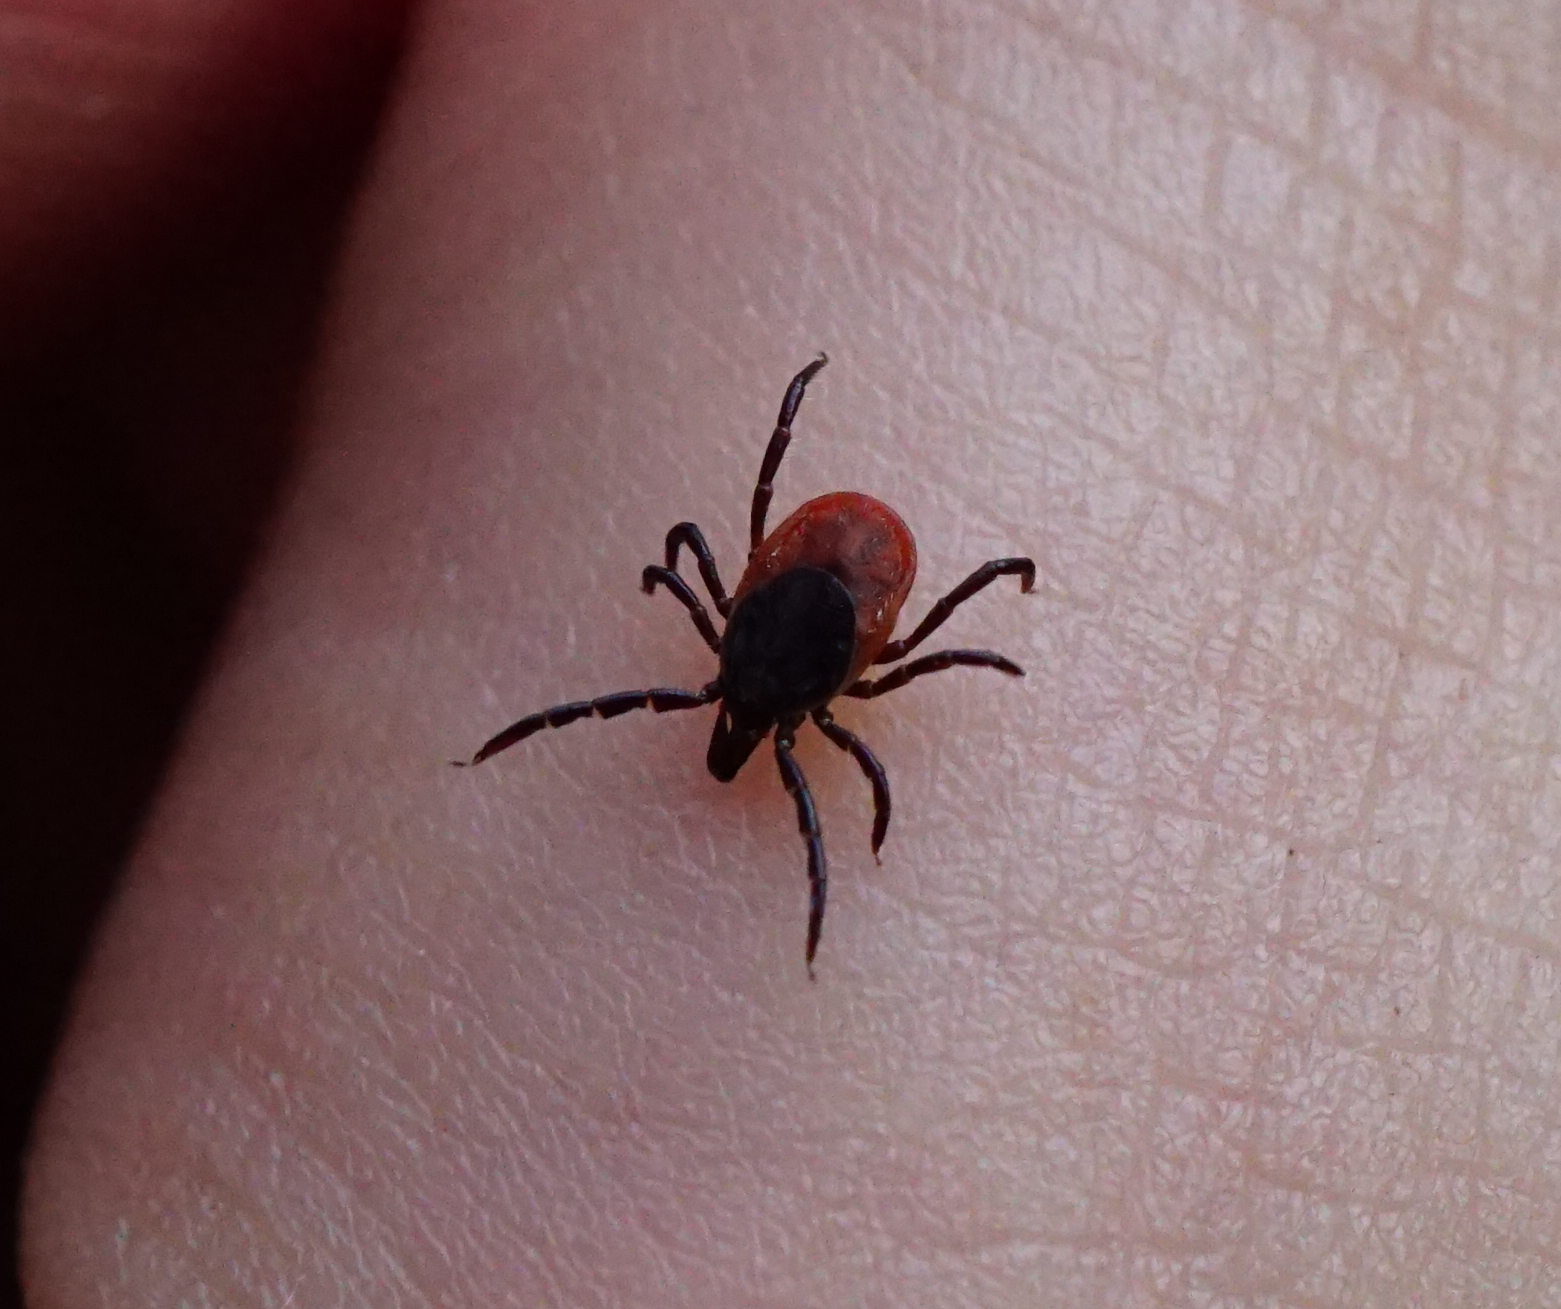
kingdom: Animalia
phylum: Arthropoda
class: Arachnida
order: Ixodida
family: Ixodidae
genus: Ixodes
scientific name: Ixodes ricinus
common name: Castor bean tick
